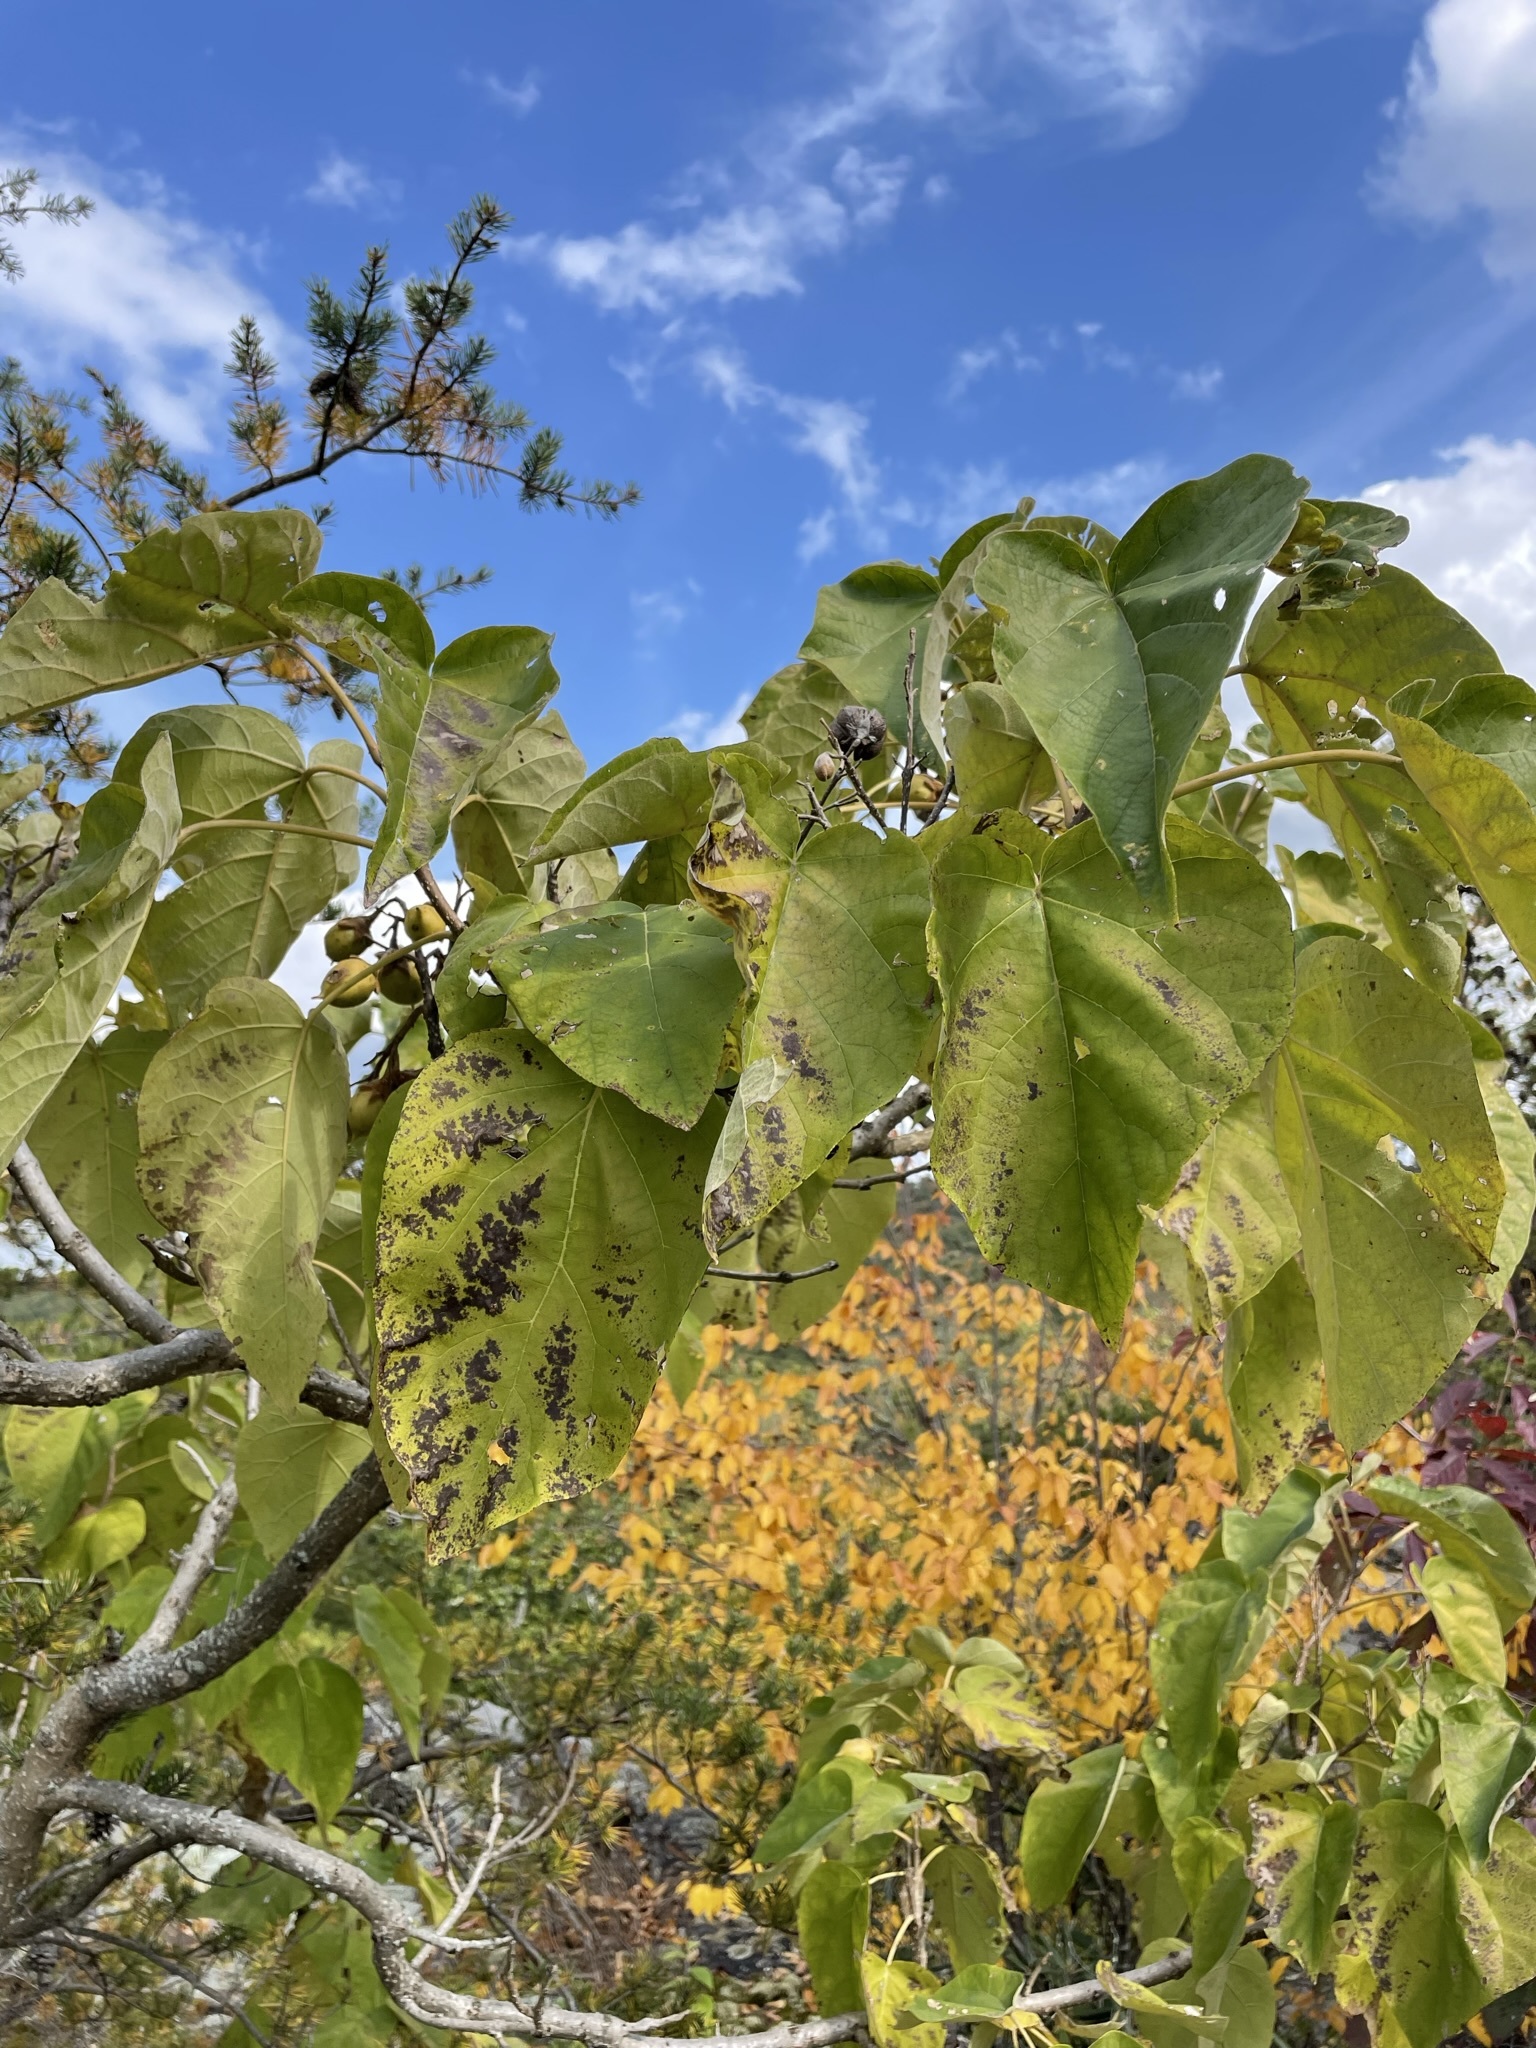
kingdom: Plantae
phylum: Tracheophyta
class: Magnoliopsida
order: Lamiales
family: Paulowniaceae
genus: Paulownia
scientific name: Paulownia tomentosa
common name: Foxglove-tree
